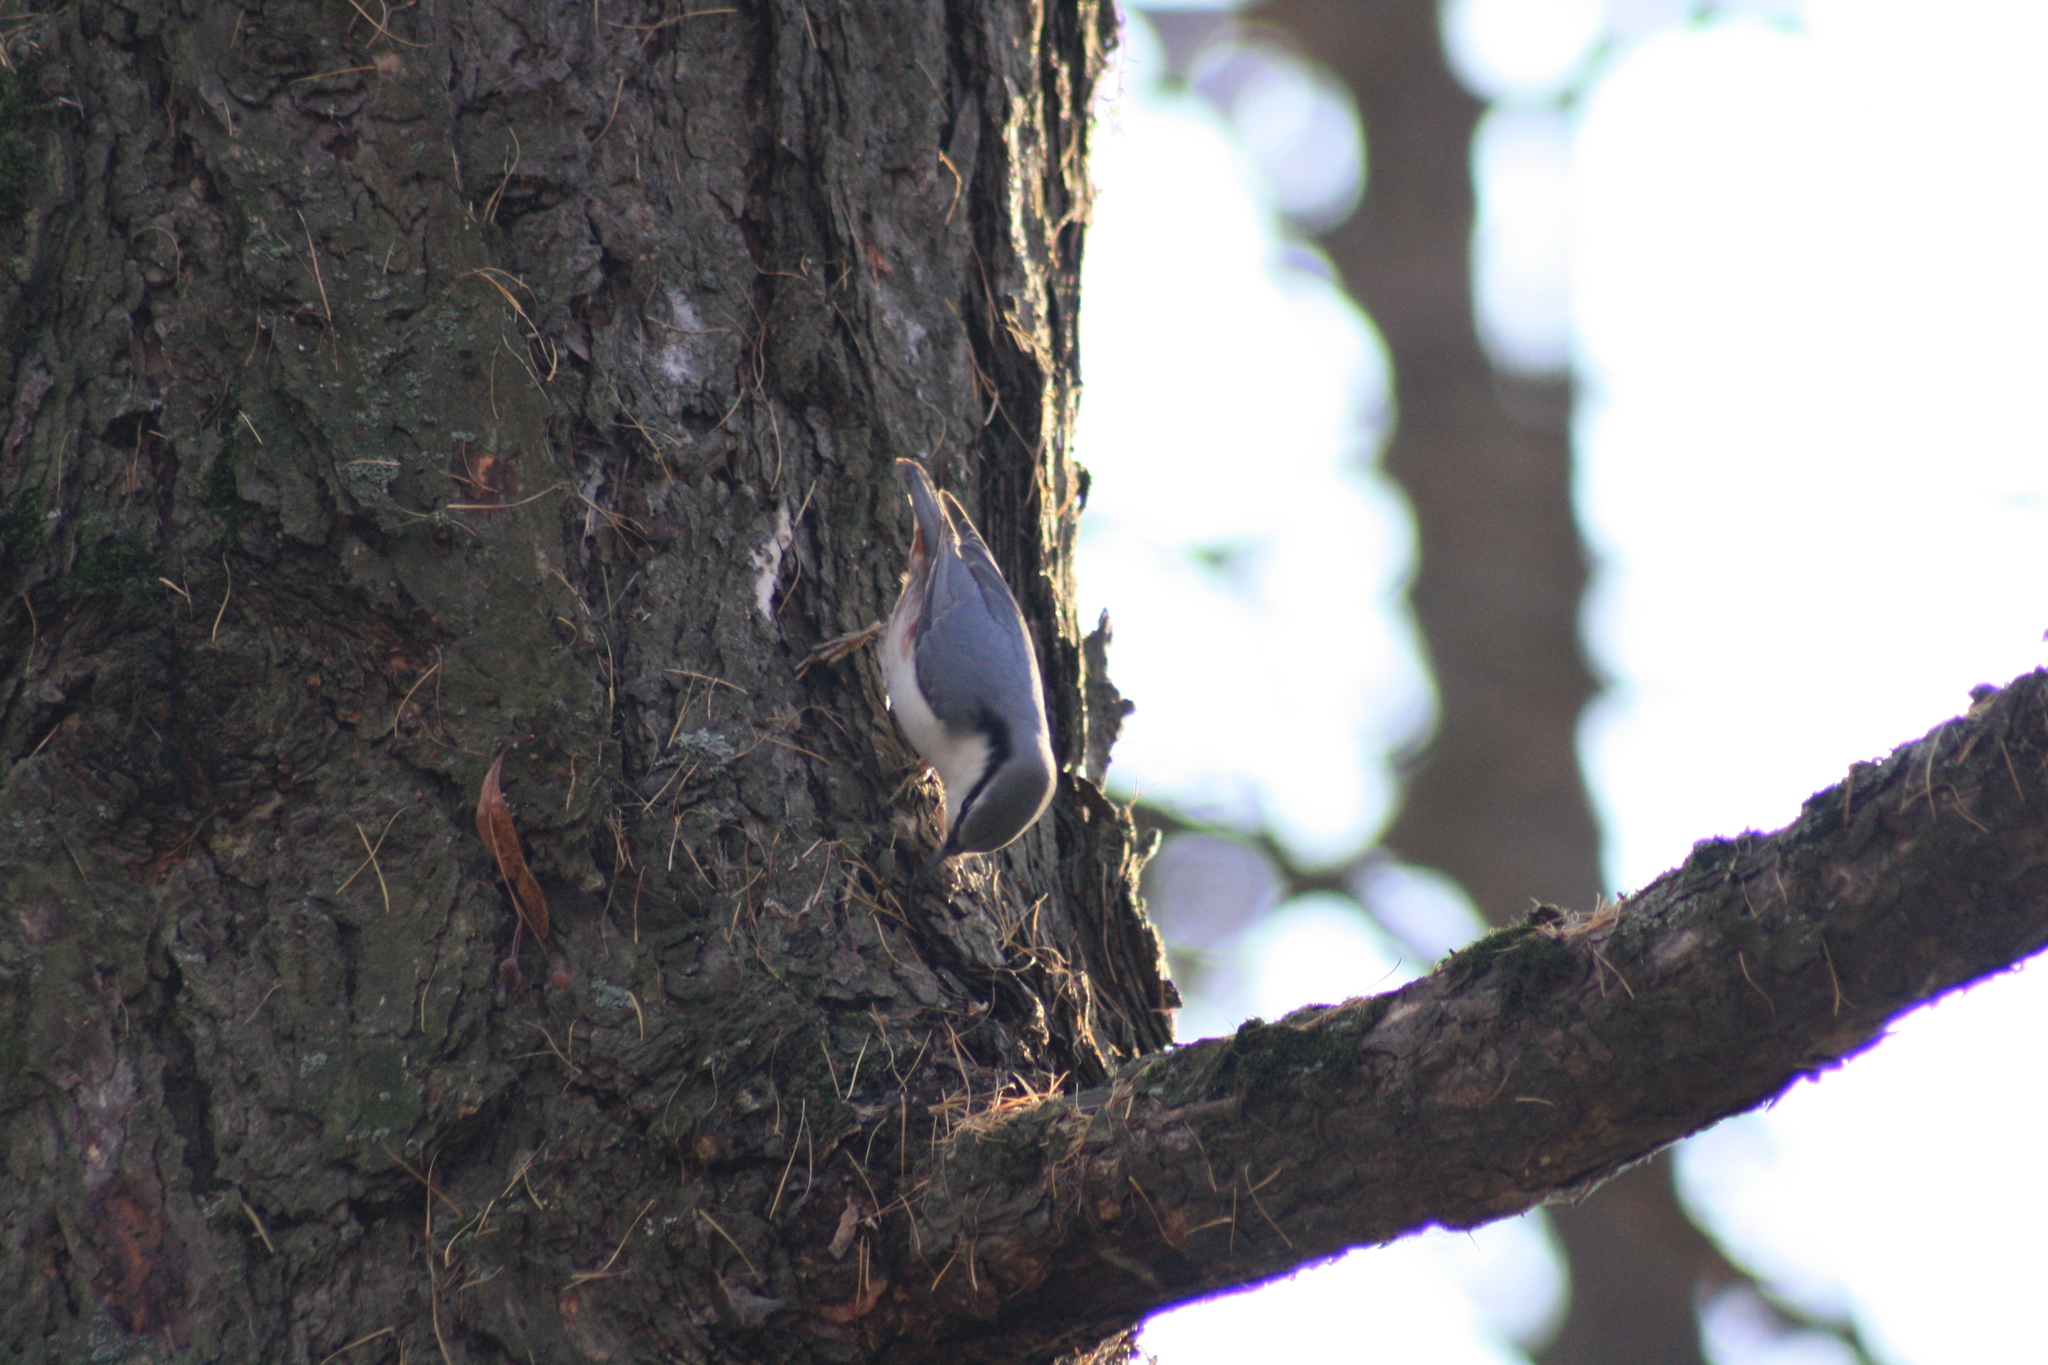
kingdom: Animalia
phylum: Chordata
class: Aves
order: Passeriformes
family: Sittidae
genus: Sitta
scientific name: Sitta europaea
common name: Eurasian nuthatch
